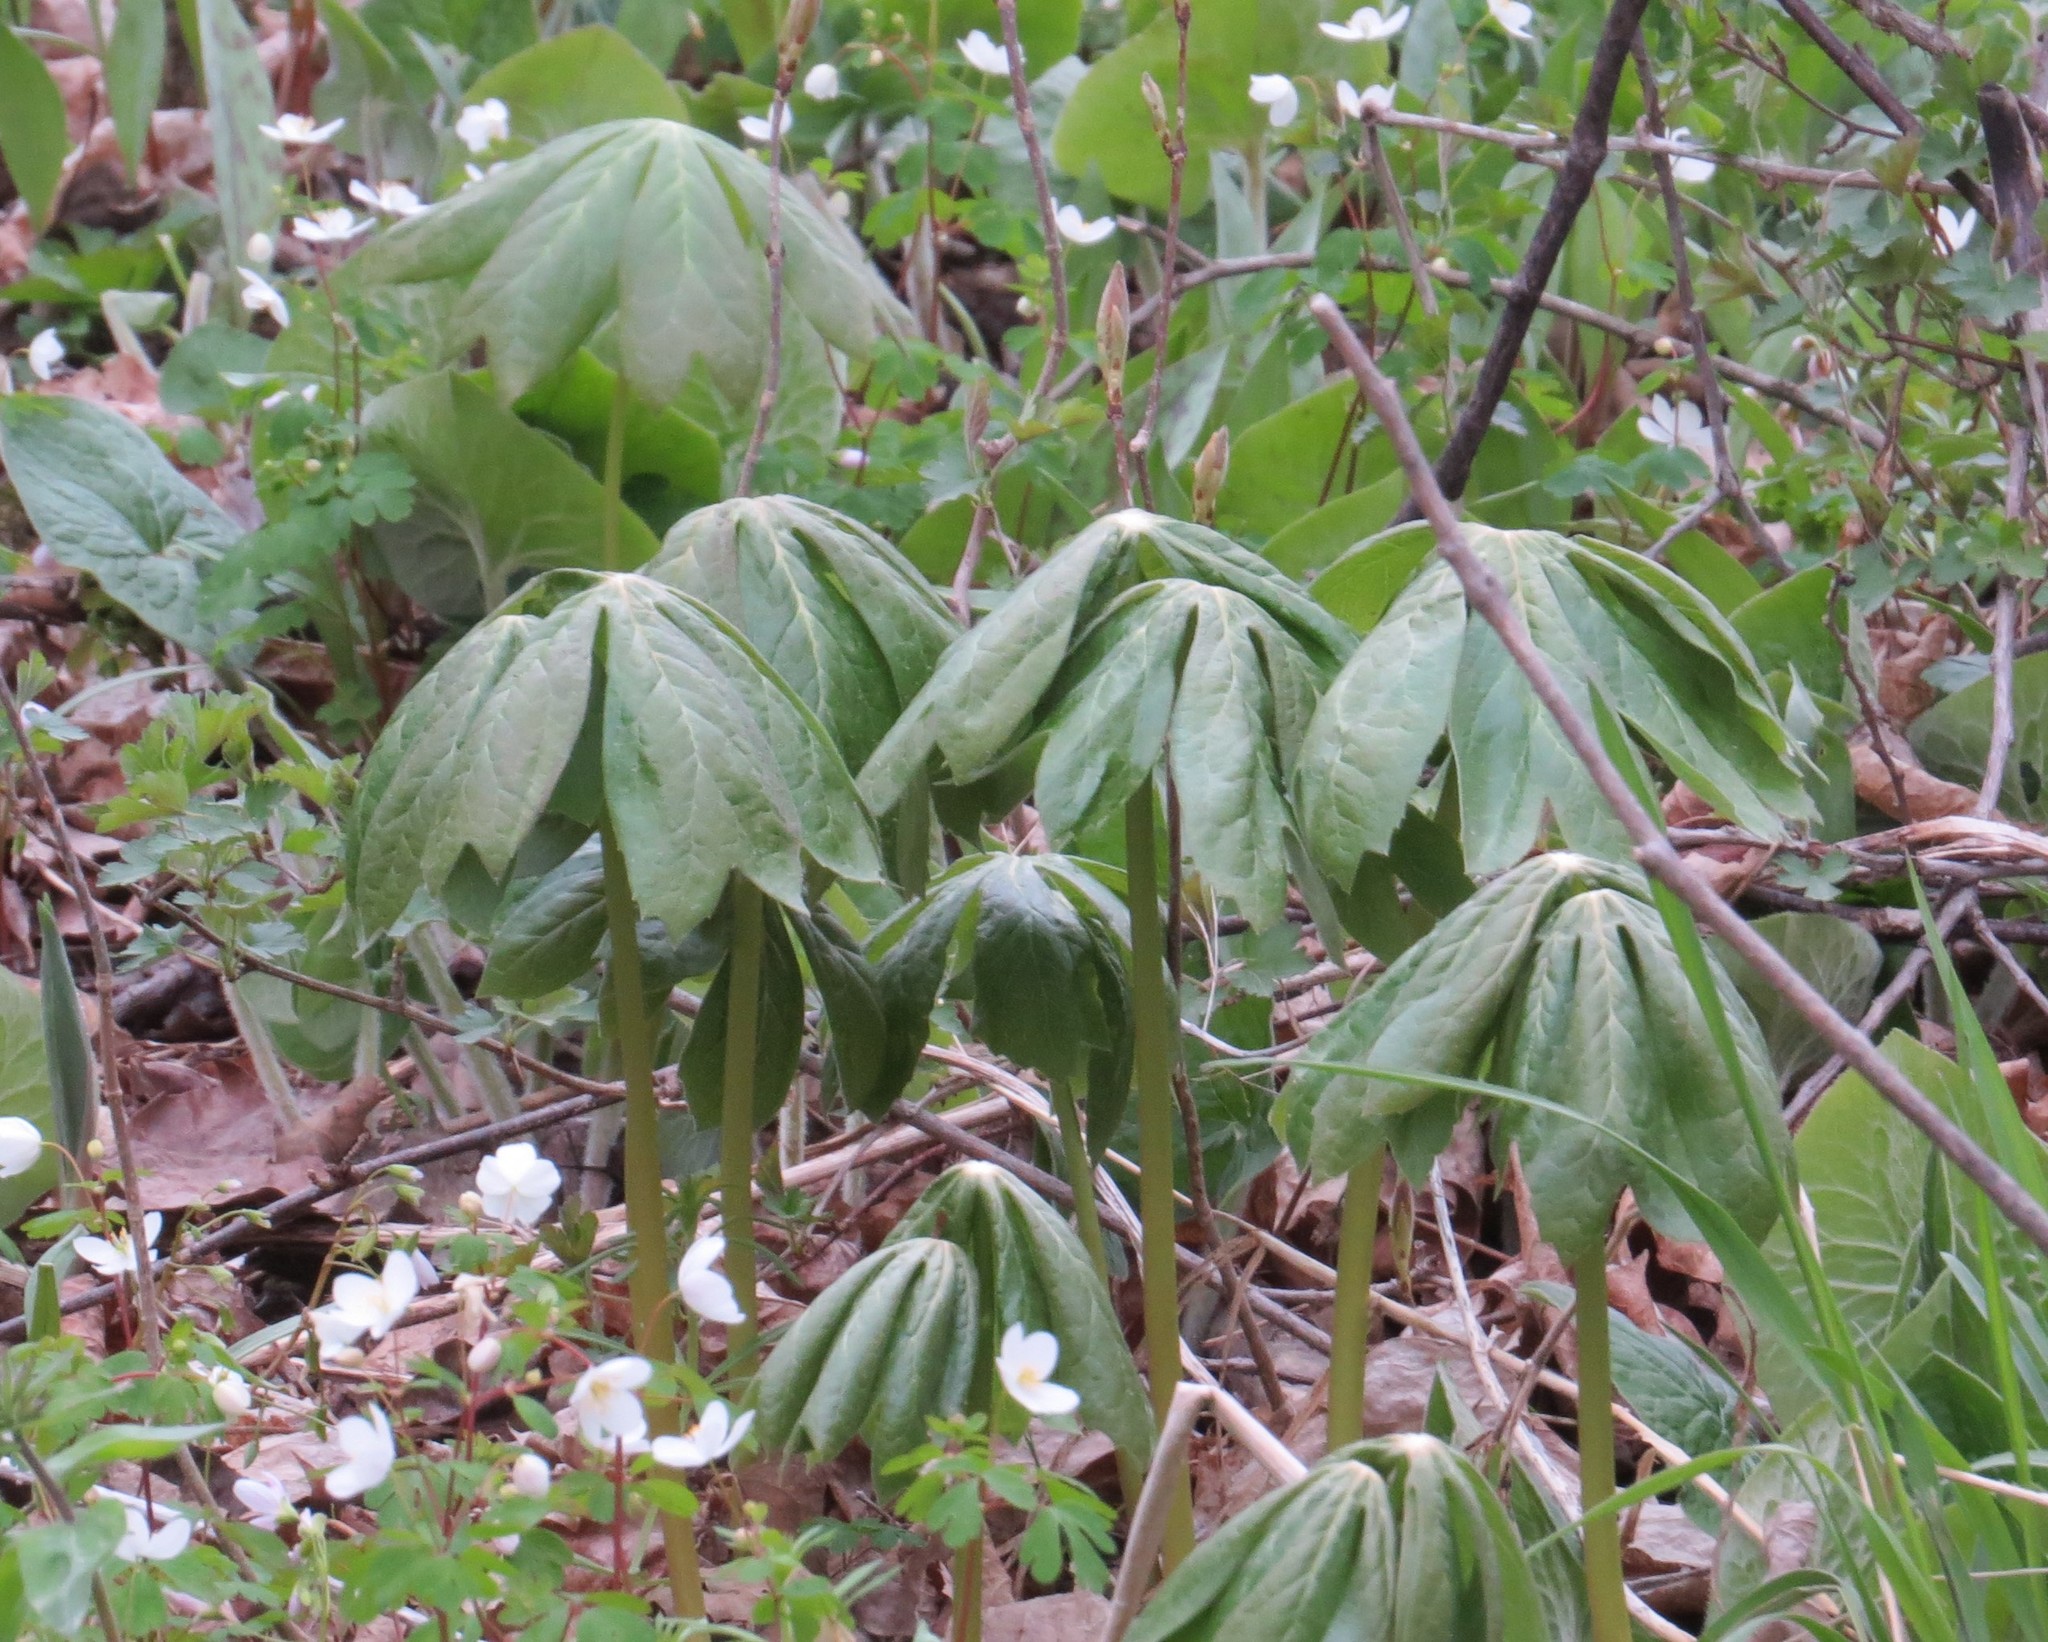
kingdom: Plantae
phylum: Tracheophyta
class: Magnoliopsida
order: Ranunculales
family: Berberidaceae
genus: Podophyllum
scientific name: Podophyllum peltatum
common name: Wild mandrake
